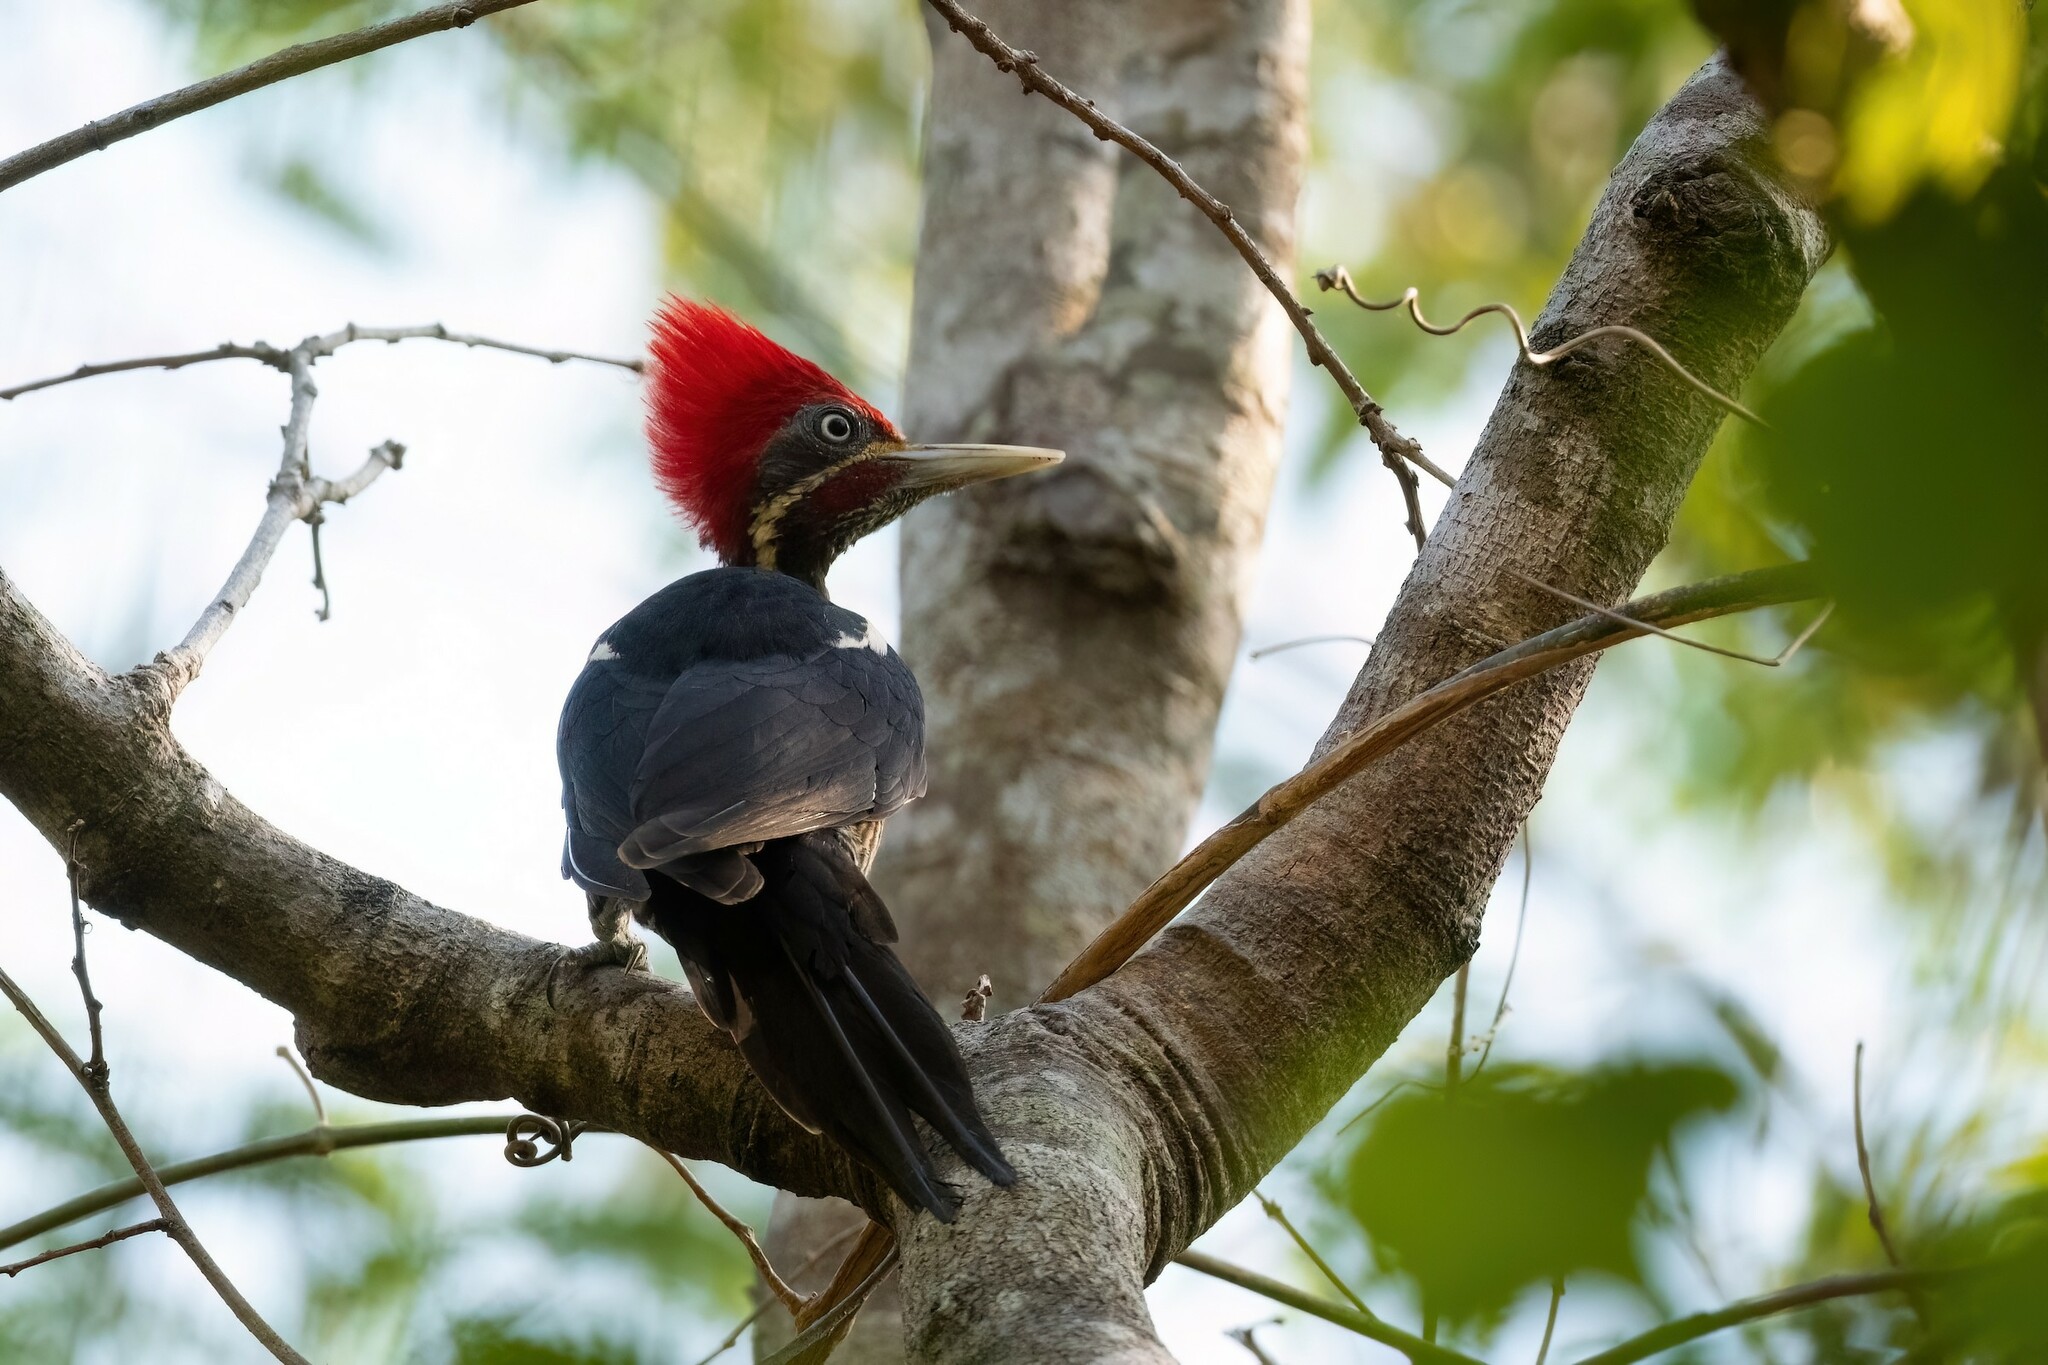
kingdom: Animalia
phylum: Chordata
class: Aves
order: Piciformes
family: Picidae
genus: Dryocopus
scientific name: Dryocopus lineatus
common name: Lineated woodpecker
